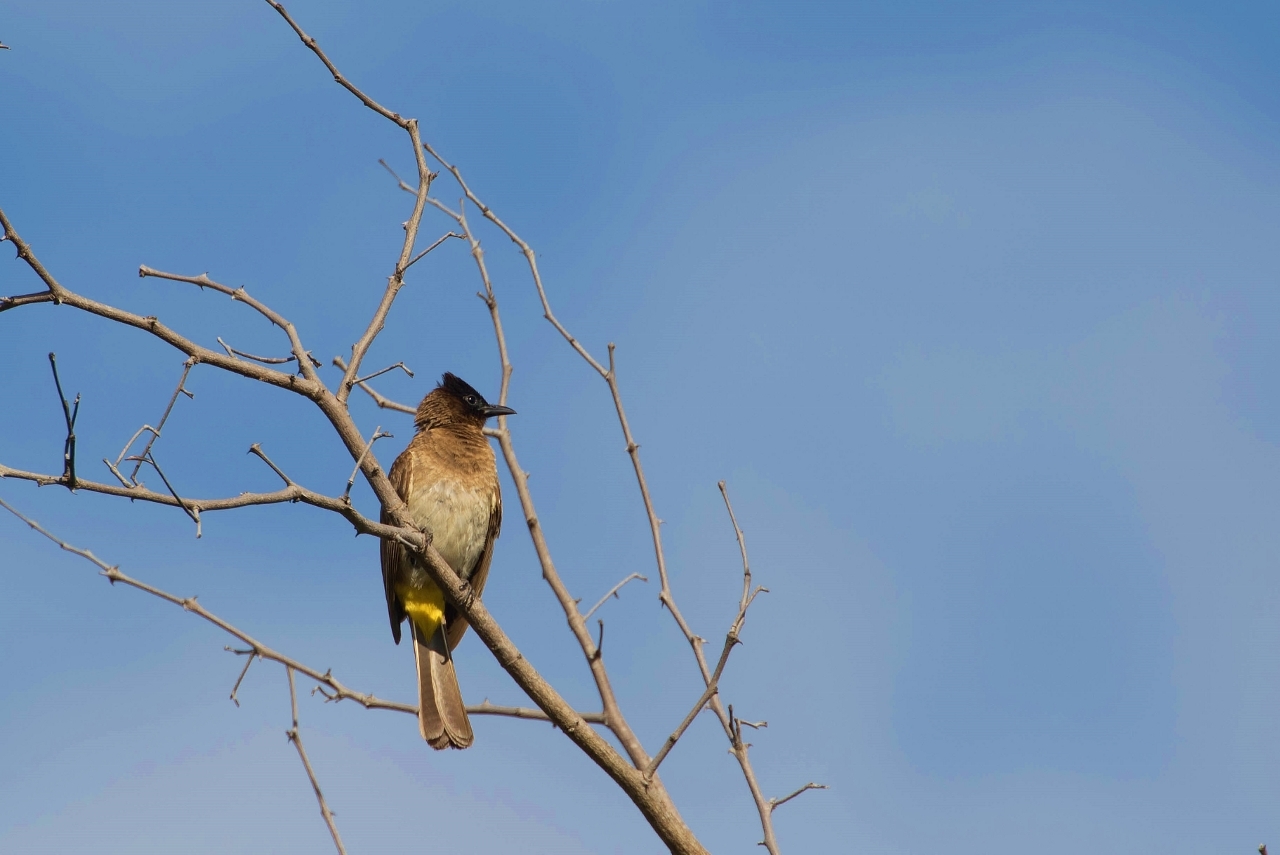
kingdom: Animalia
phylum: Chordata
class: Aves
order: Passeriformes
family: Pycnonotidae
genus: Pycnonotus
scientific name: Pycnonotus barbatus
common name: Common bulbul
